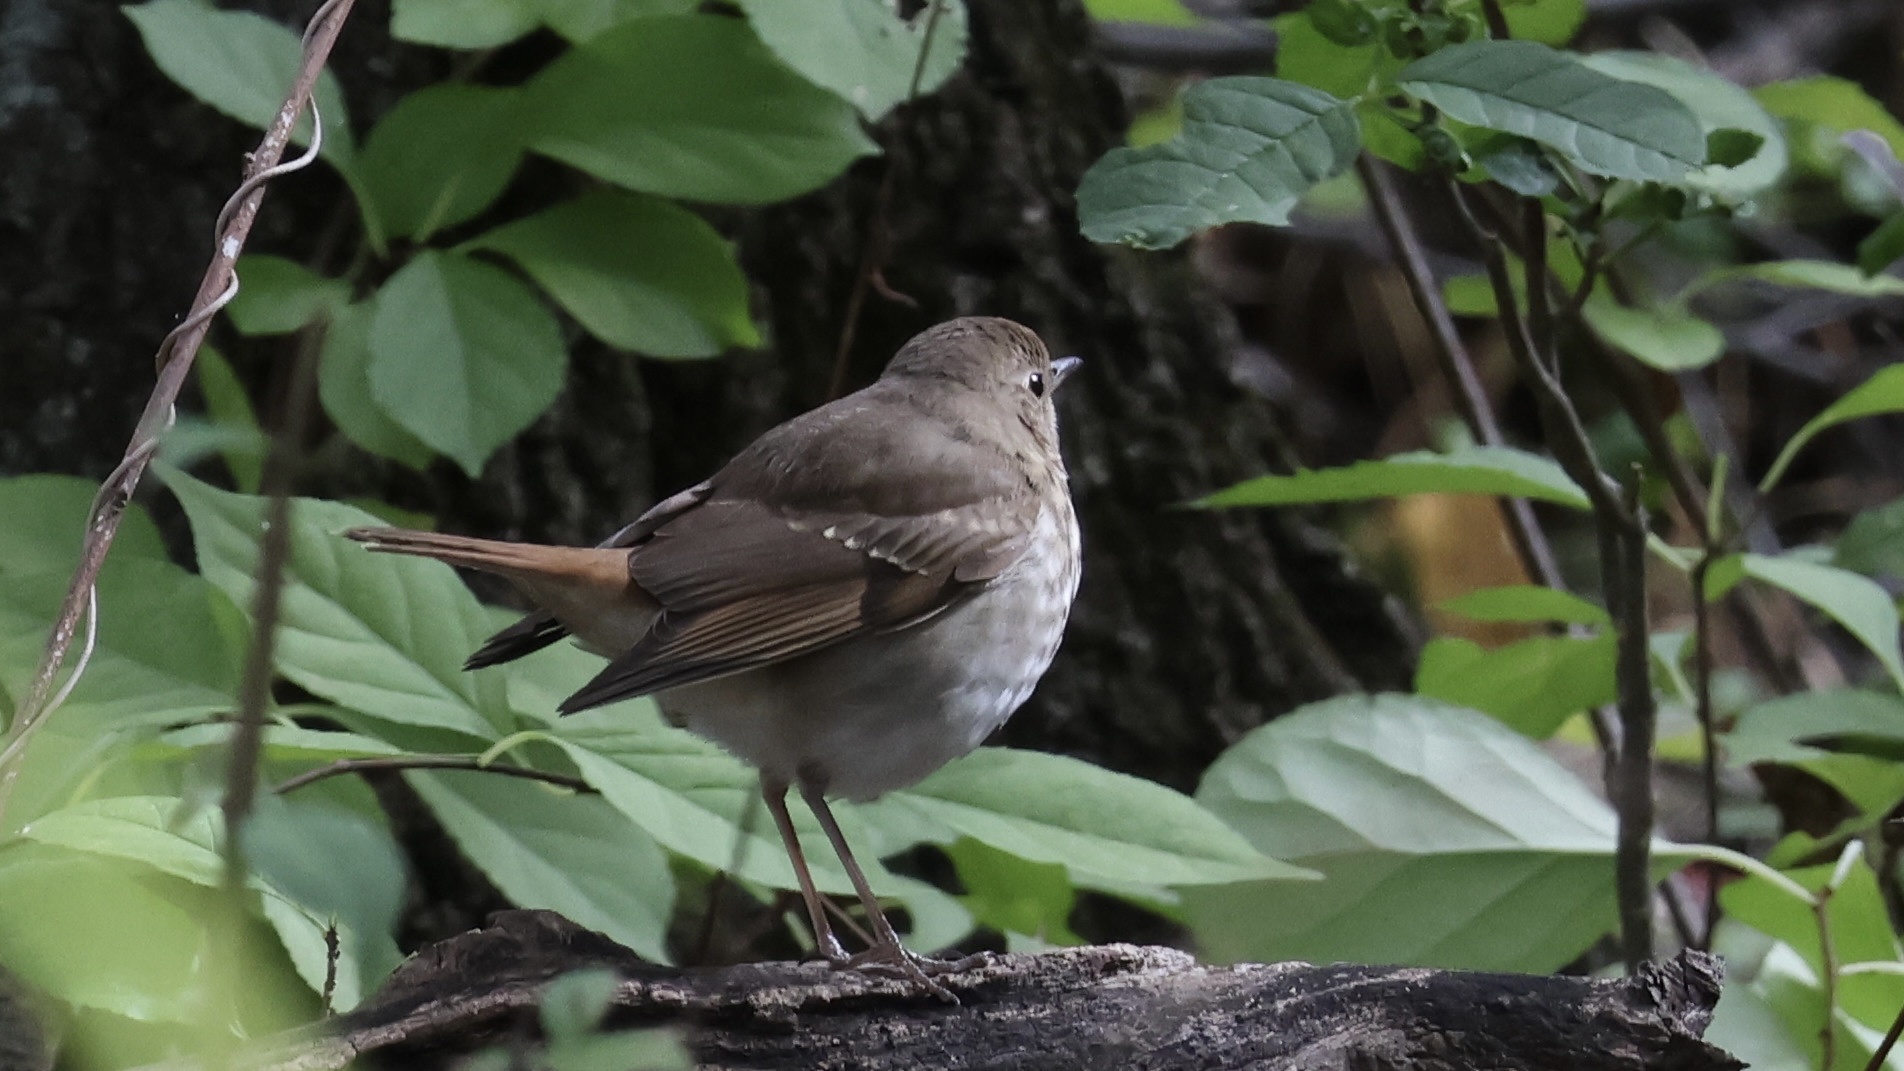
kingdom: Animalia
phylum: Chordata
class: Aves
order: Passeriformes
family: Turdidae
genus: Catharus
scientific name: Catharus guttatus
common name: Hermit thrush
